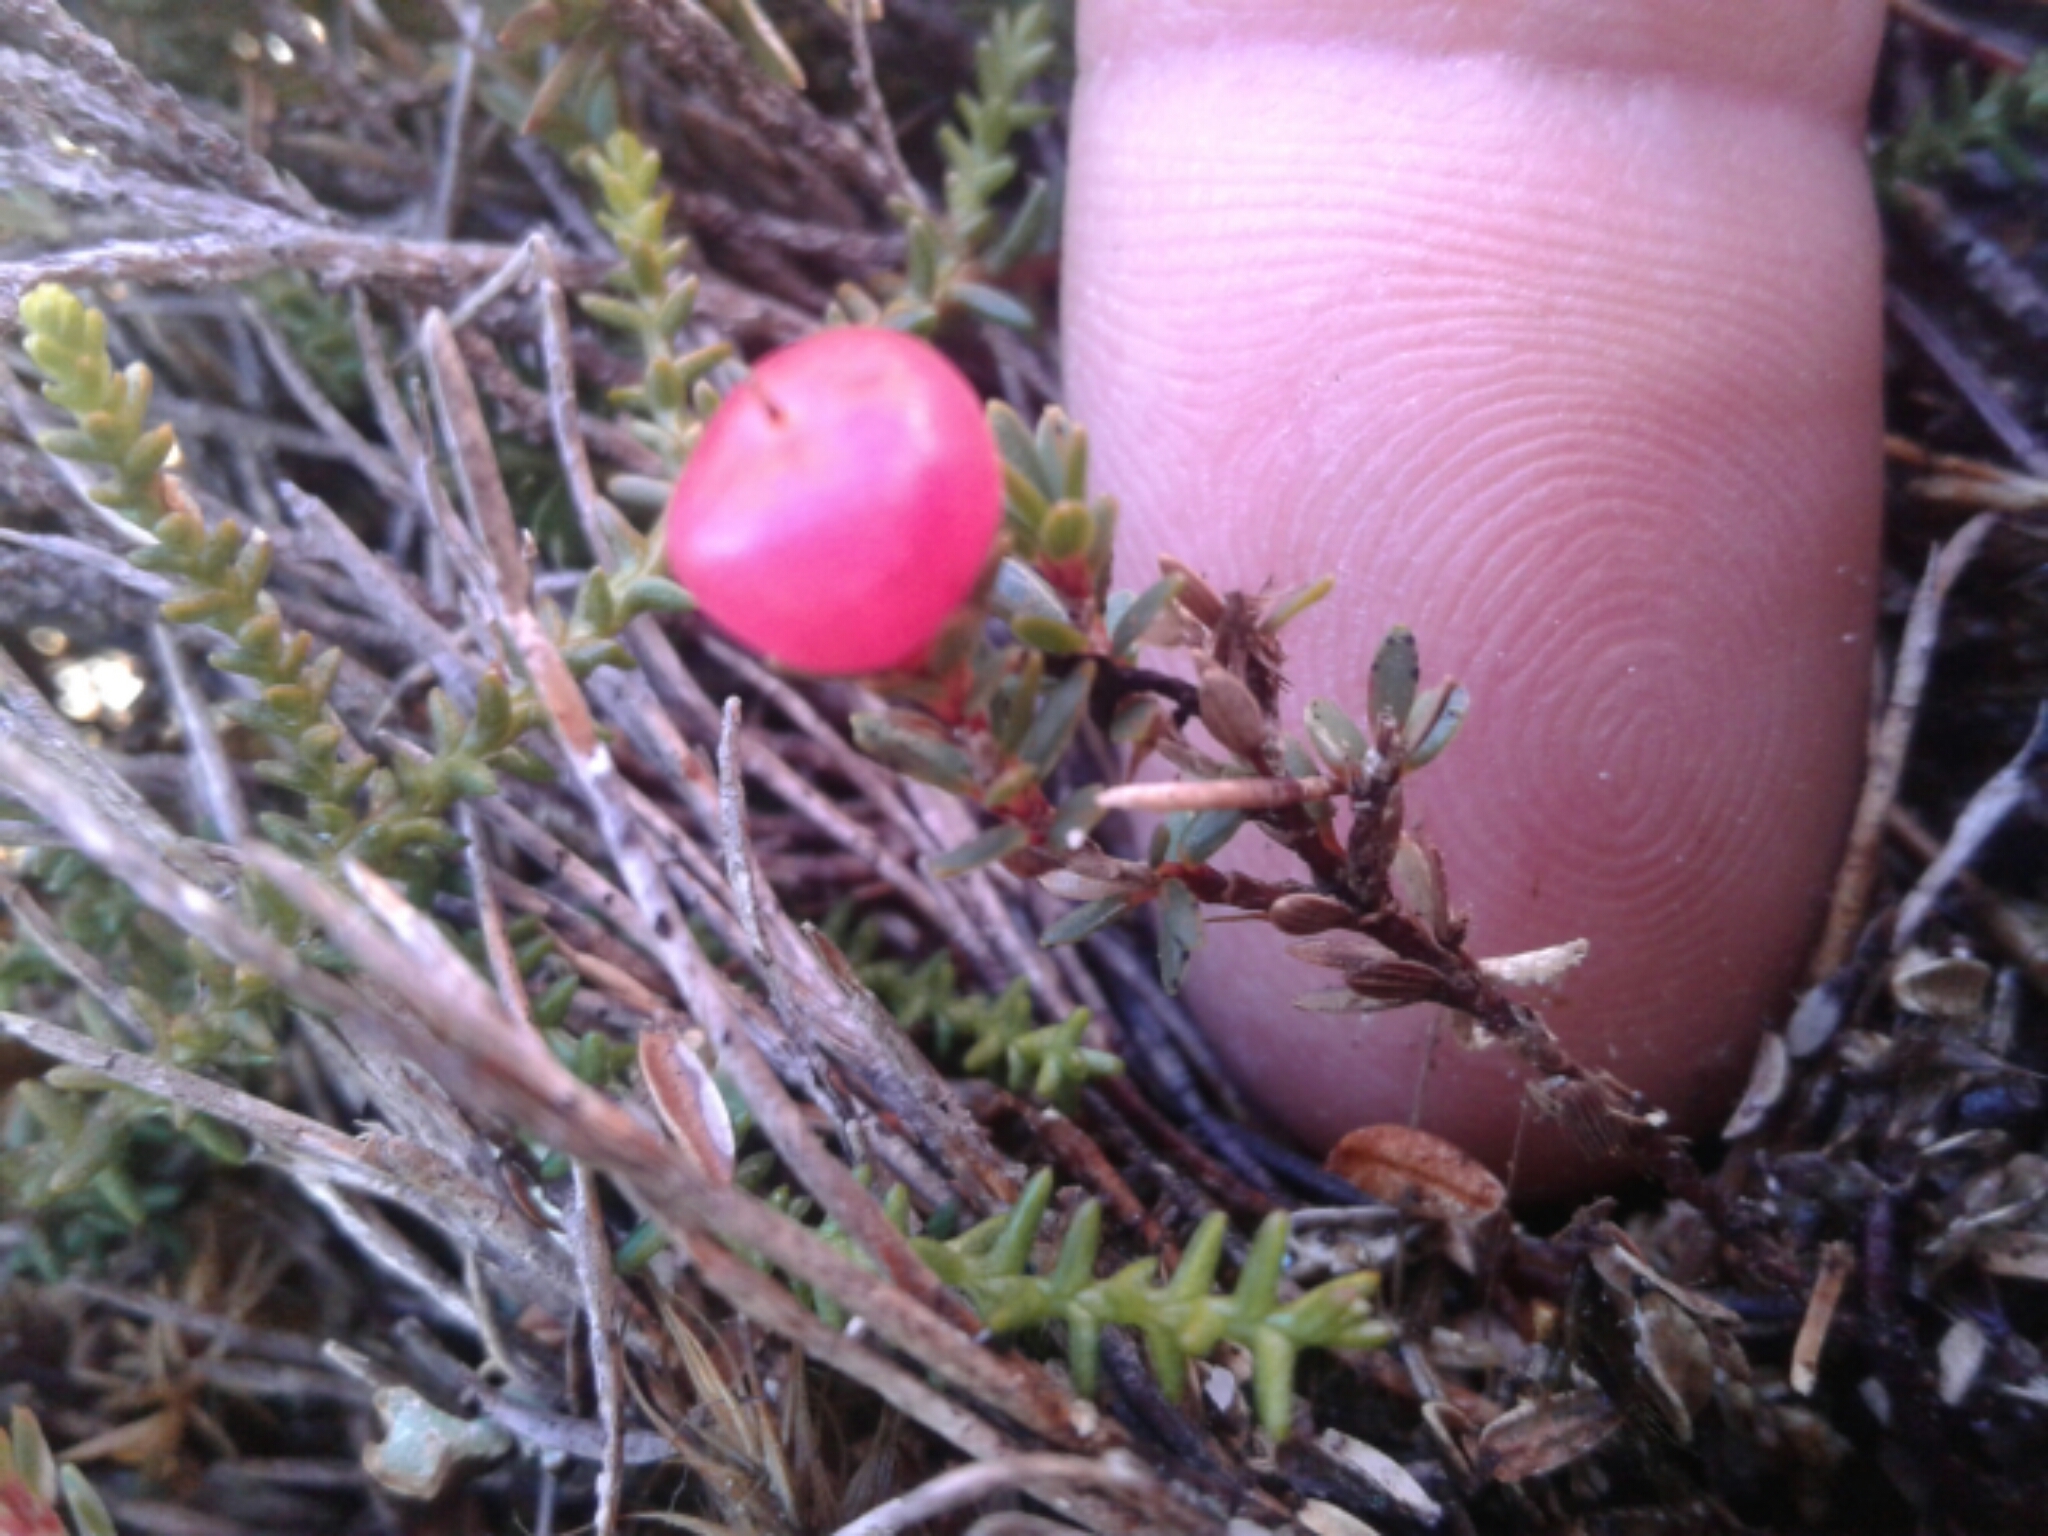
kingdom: Plantae
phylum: Tracheophyta
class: Magnoliopsida
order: Ericales
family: Ericaceae
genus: Pentachondra
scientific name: Pentachondra pumila
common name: Carpet-heath
